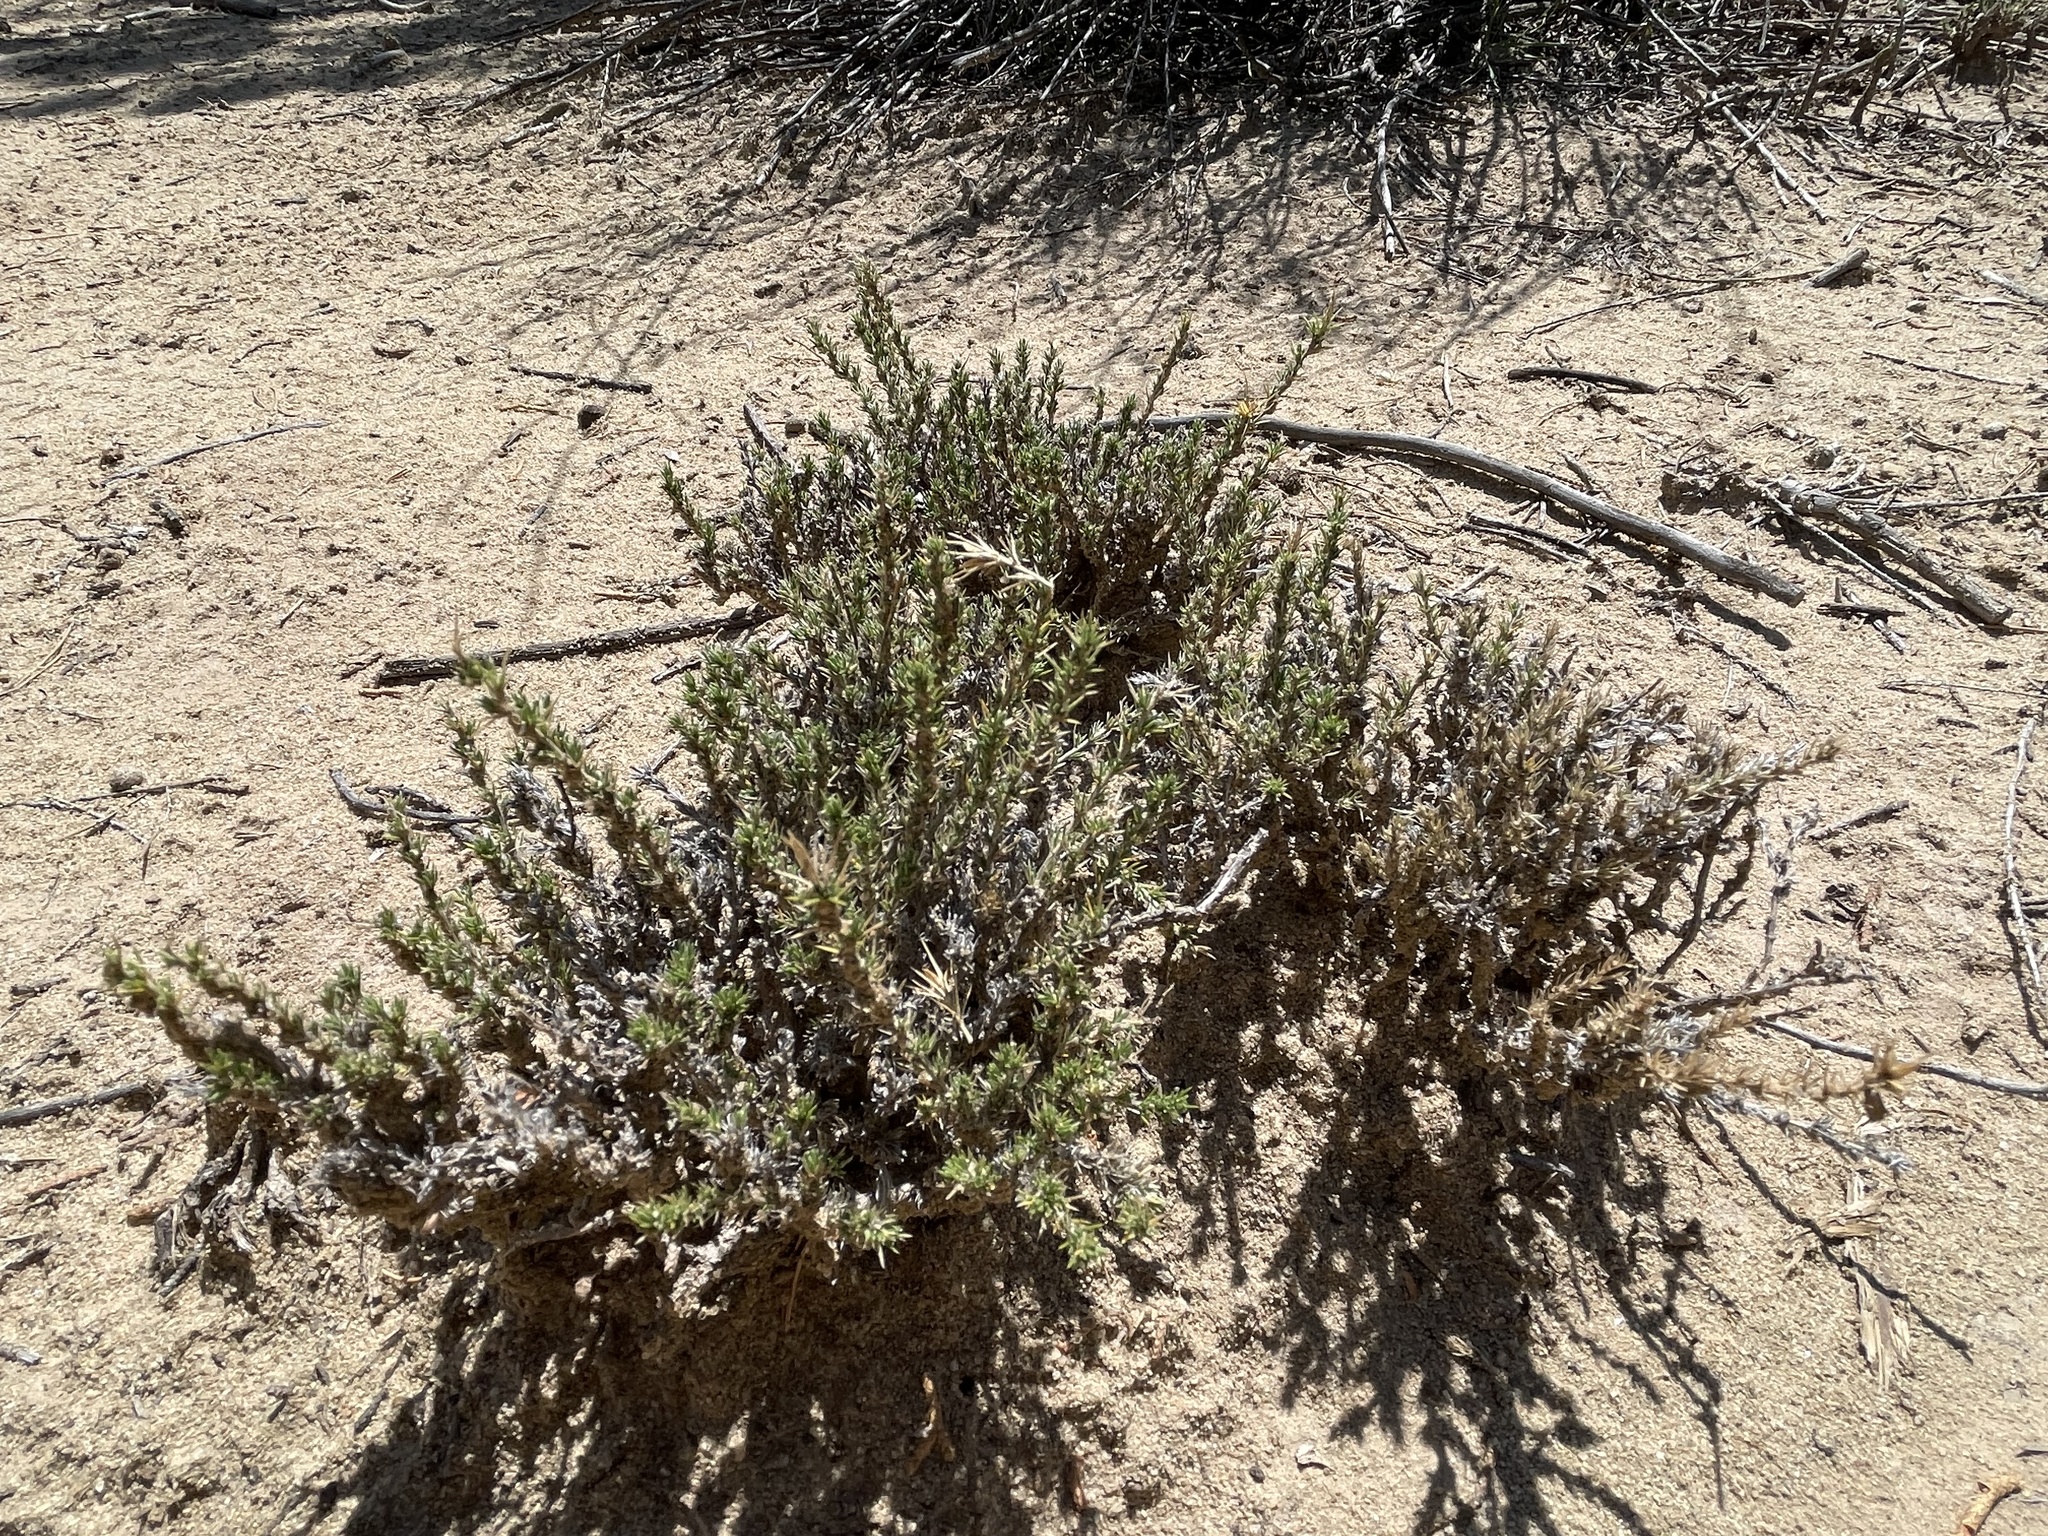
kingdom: Plantae
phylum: Tracheophyta
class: Magnoliopsida
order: Ericales
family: Polemoniaceae
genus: Linanthus
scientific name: Linanthus pungens
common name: Granite prickly phlox
